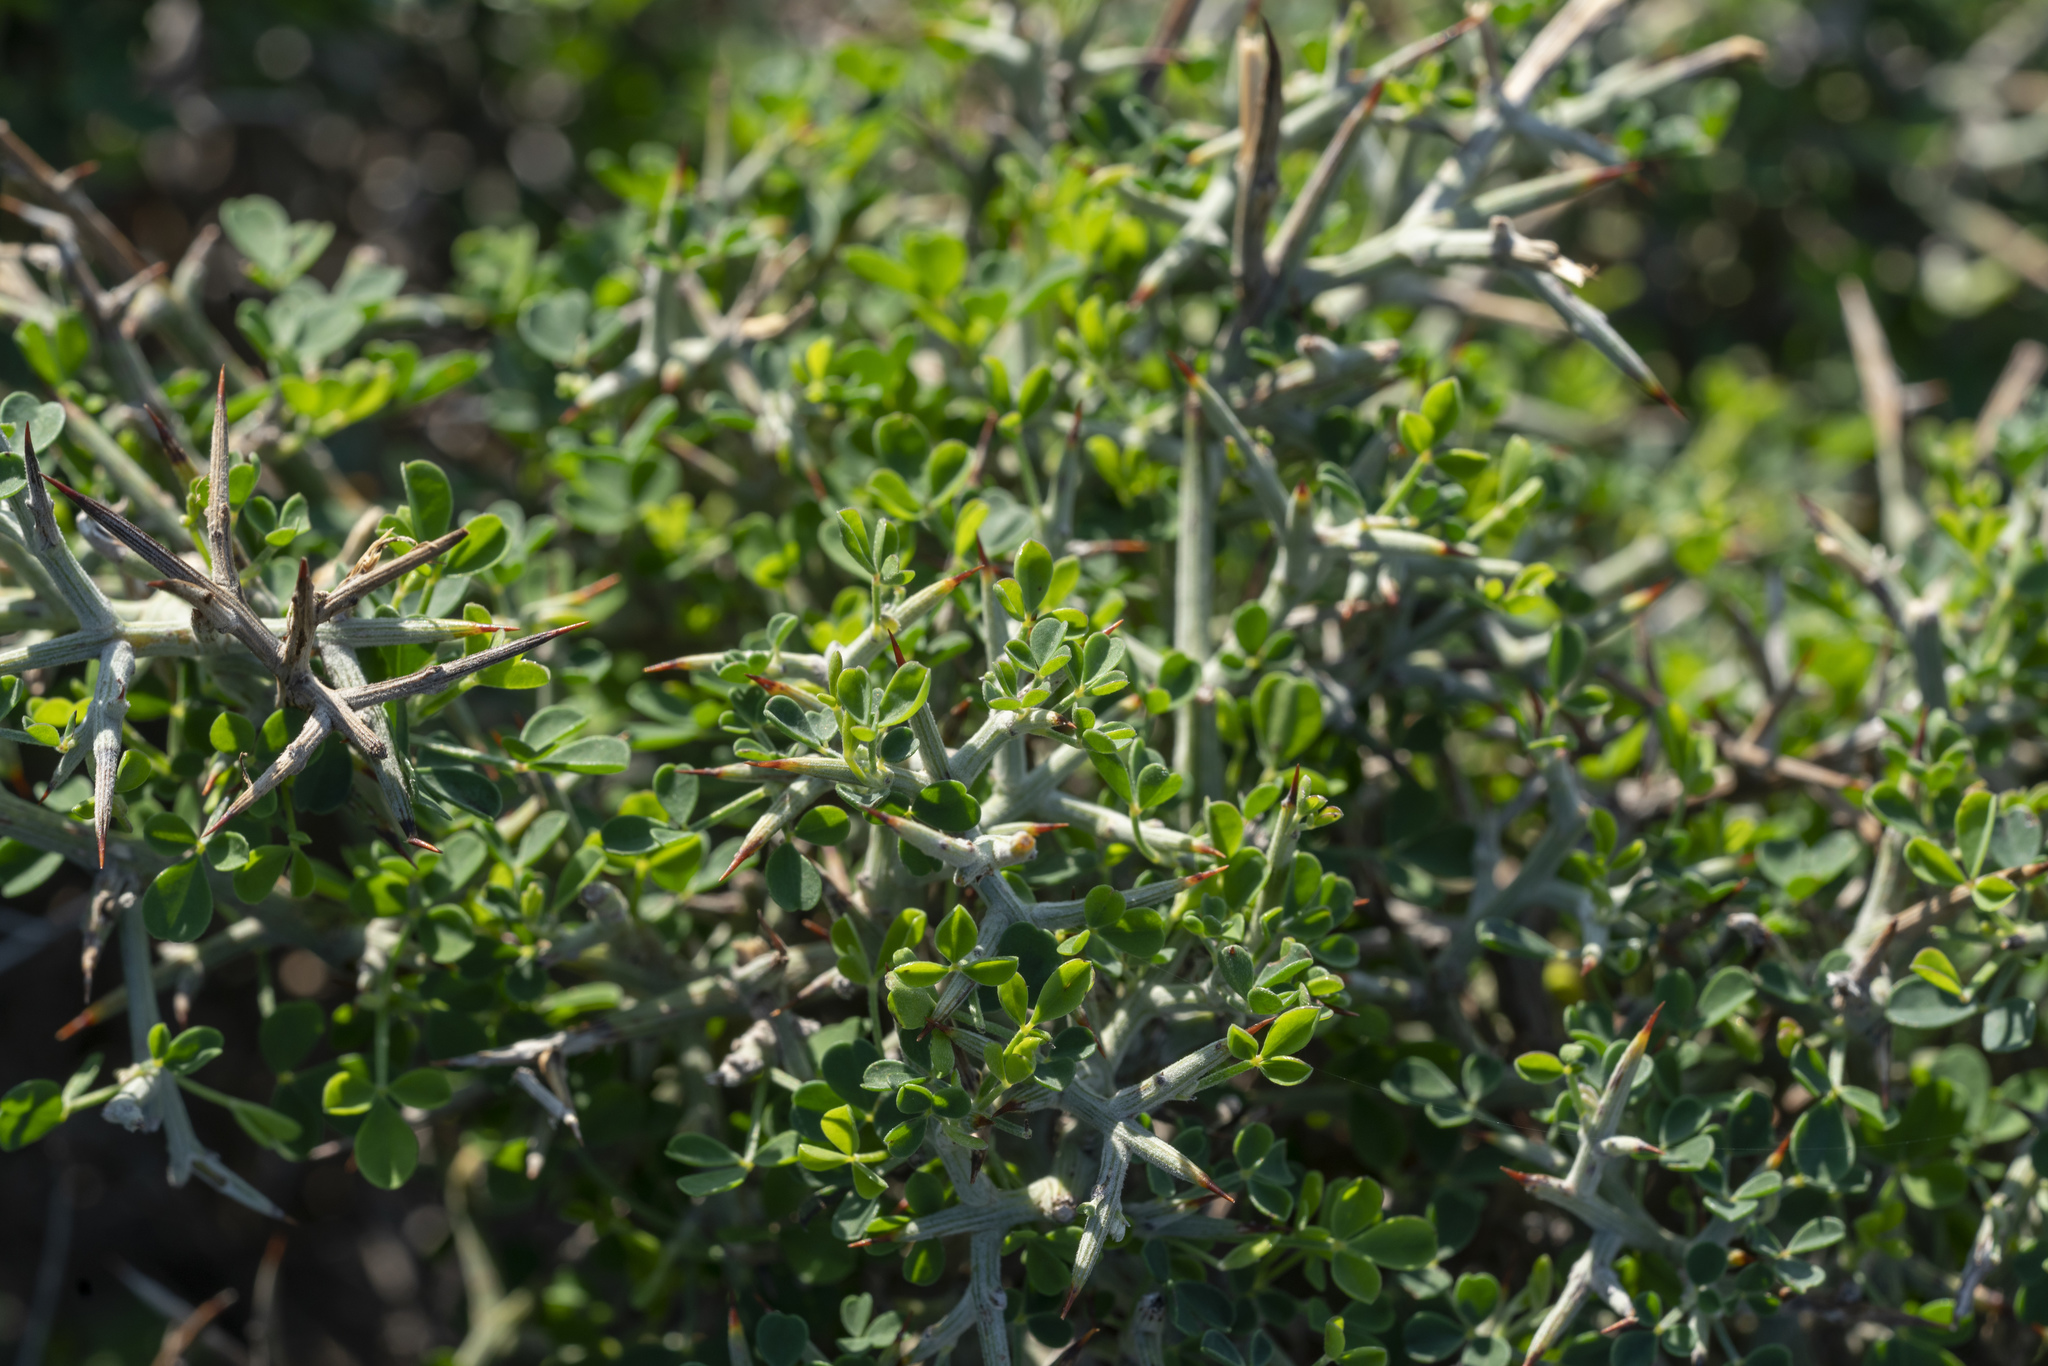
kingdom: Plantae
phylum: Tracheophyta
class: Magnoliopsida
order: Fabales
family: Fabaceae
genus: Calicotome
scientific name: Calicotome villosa
